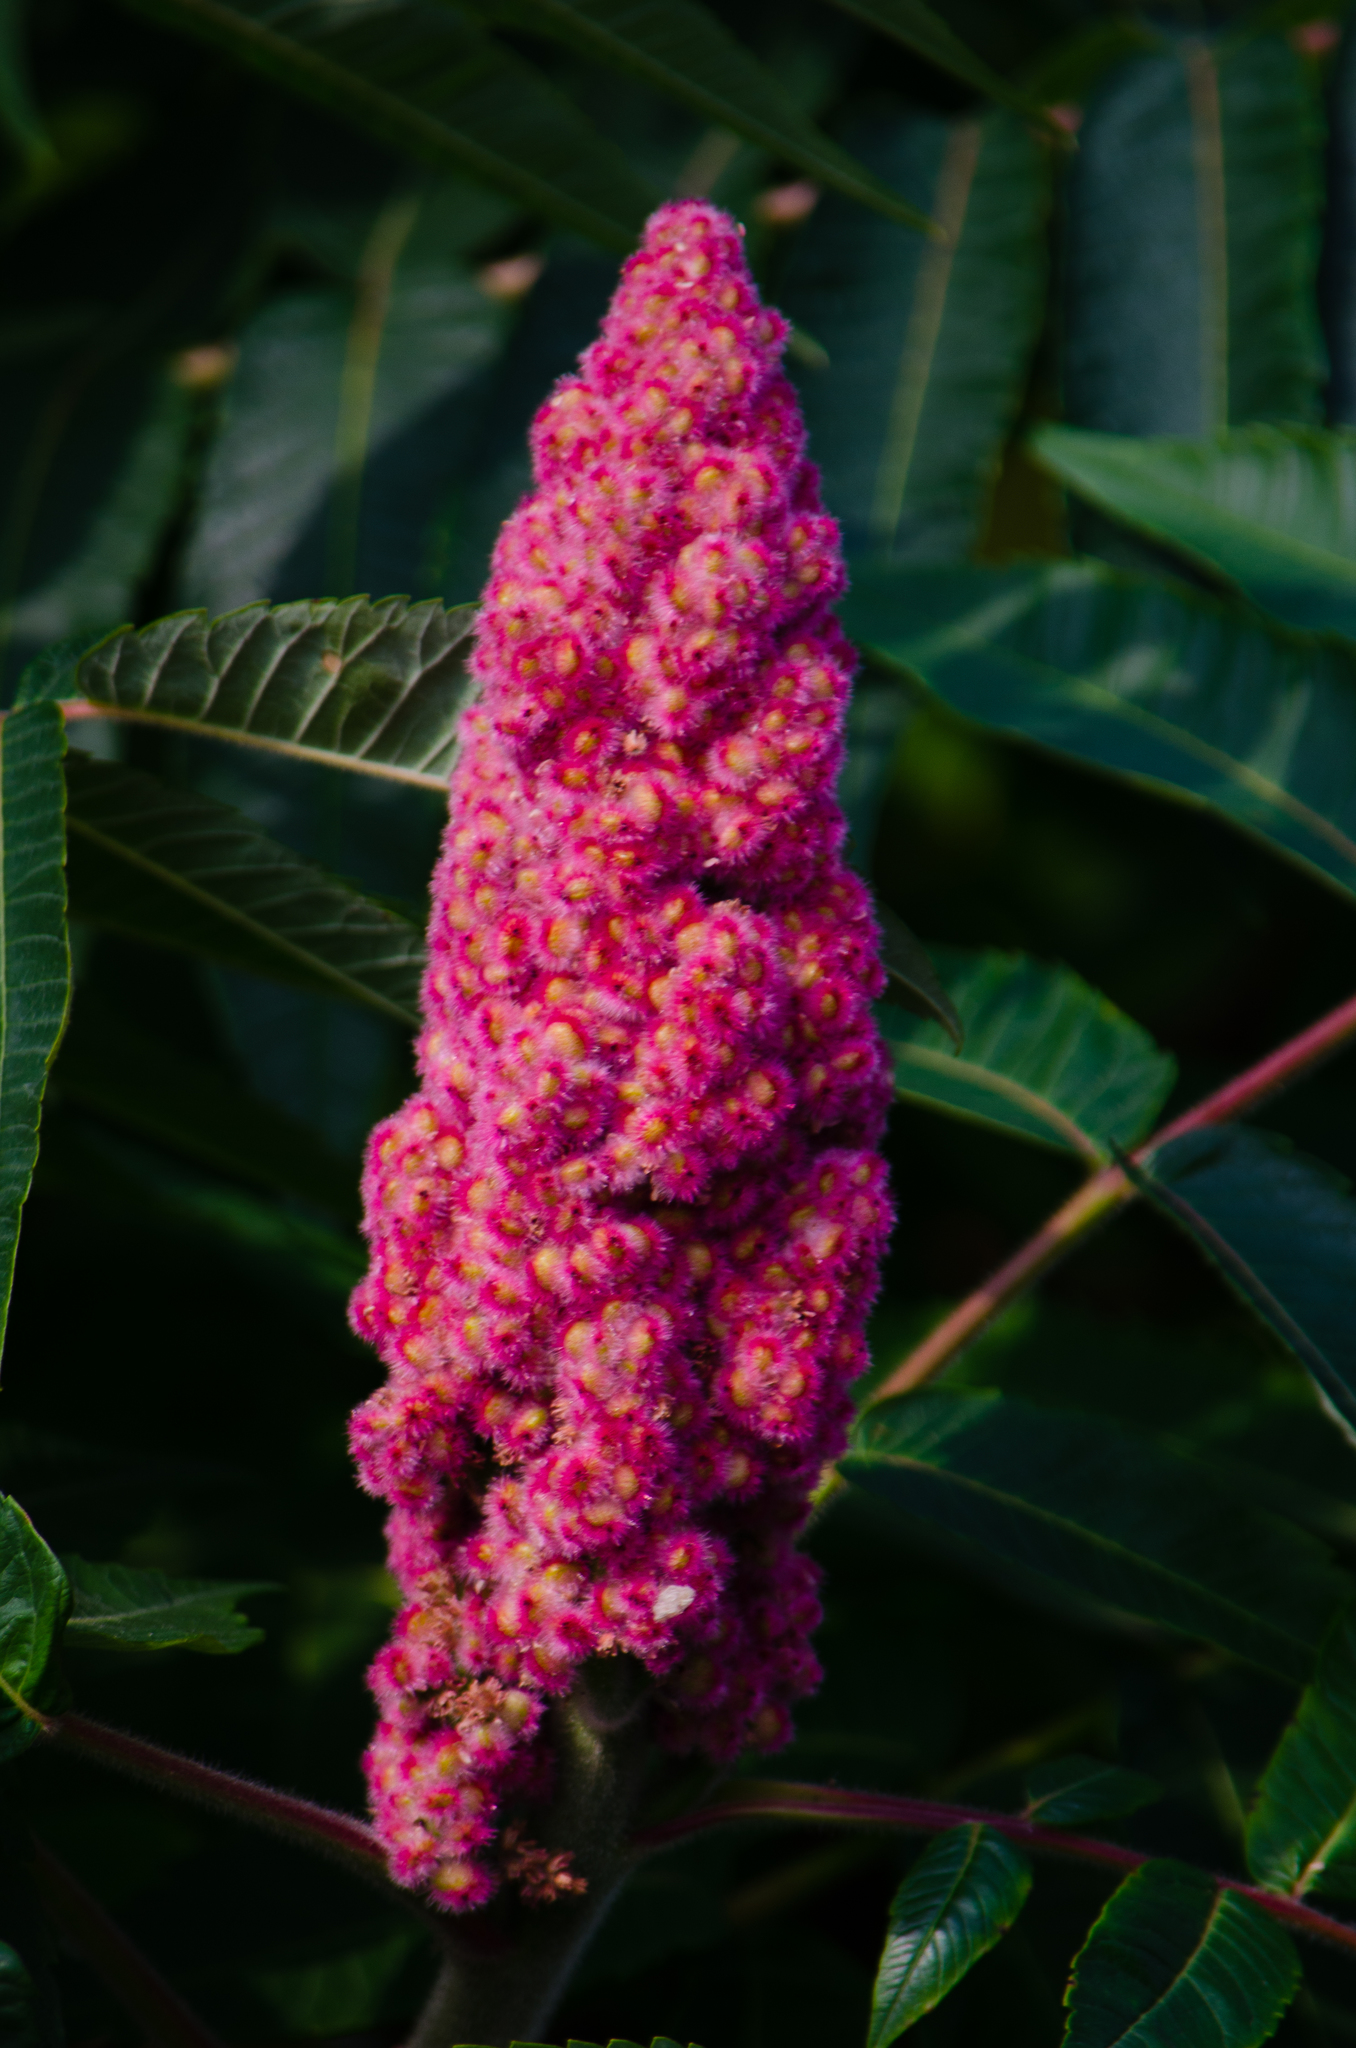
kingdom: Plantae
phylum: Tracheophyta
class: Magnoliopsida
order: Sapindales
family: Anacardiaceae
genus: Rhus
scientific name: Rhus typhina
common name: Staghorn sumac
